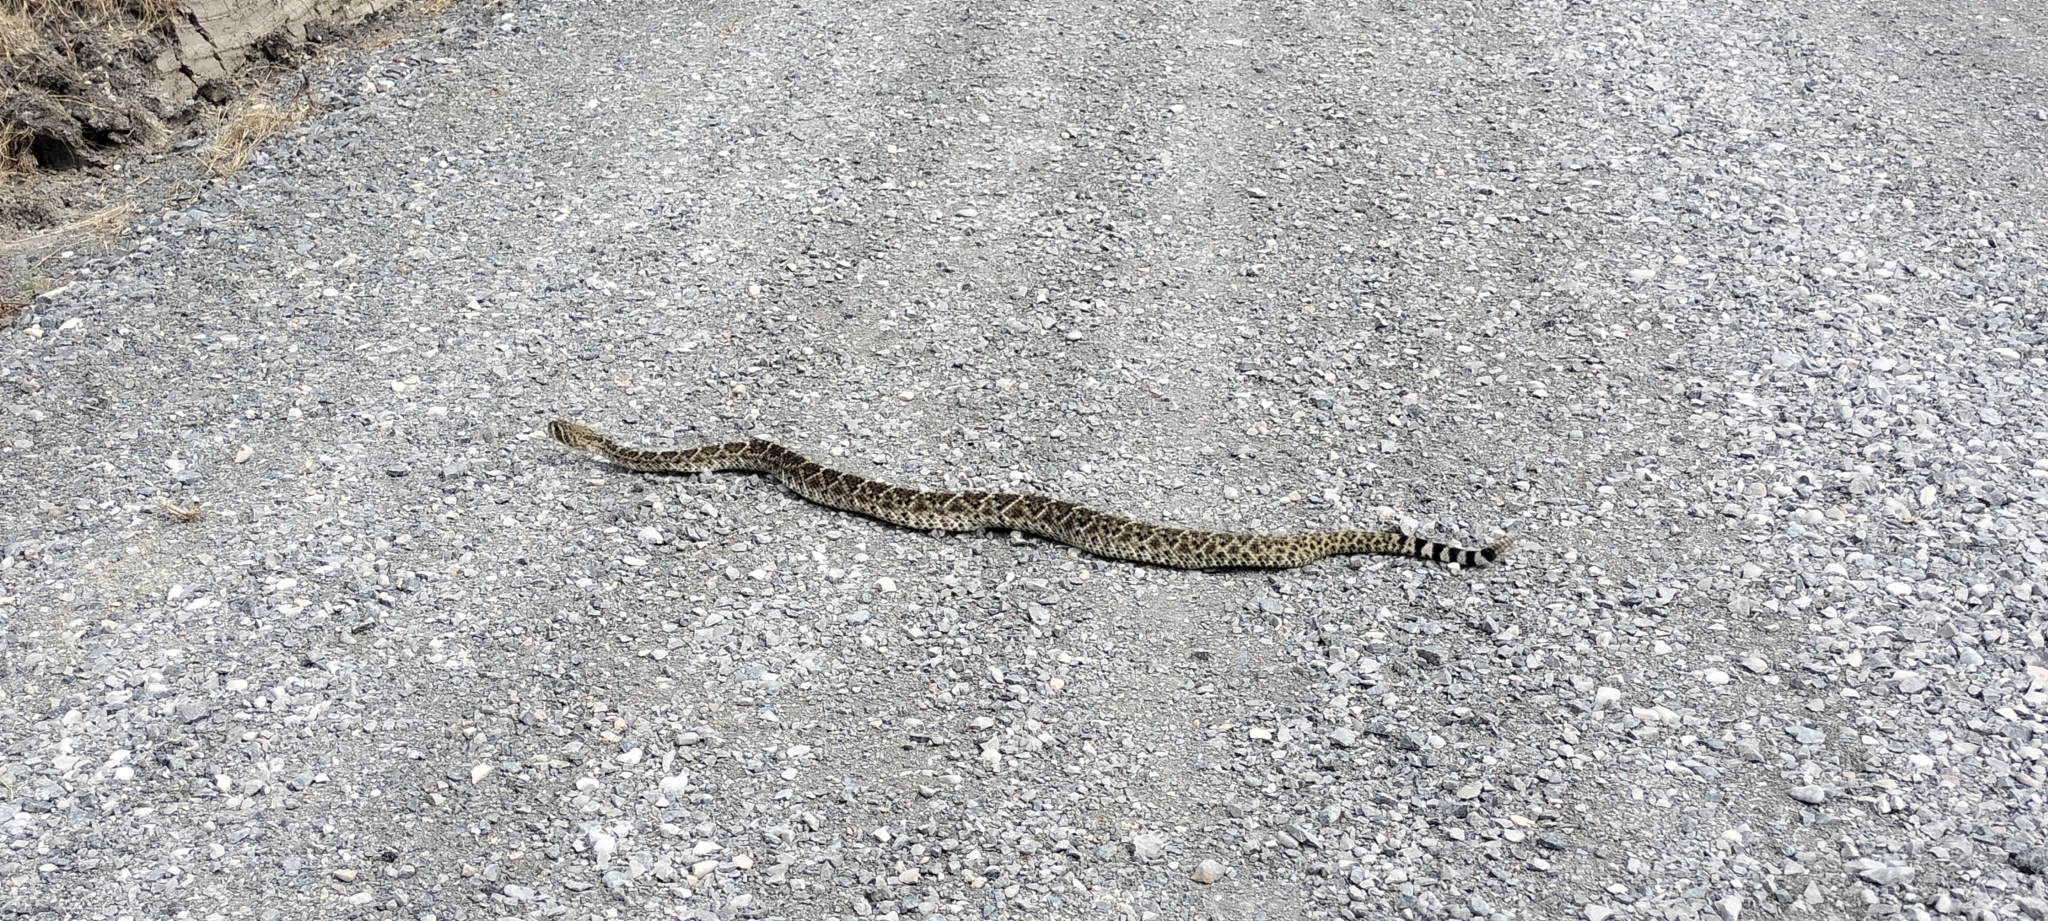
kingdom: Animalia
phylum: Chordata
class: Squamata
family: Viperidae
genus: Crotalus
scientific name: Crotalus atrox
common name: Western diamond-backed rattlesnake
